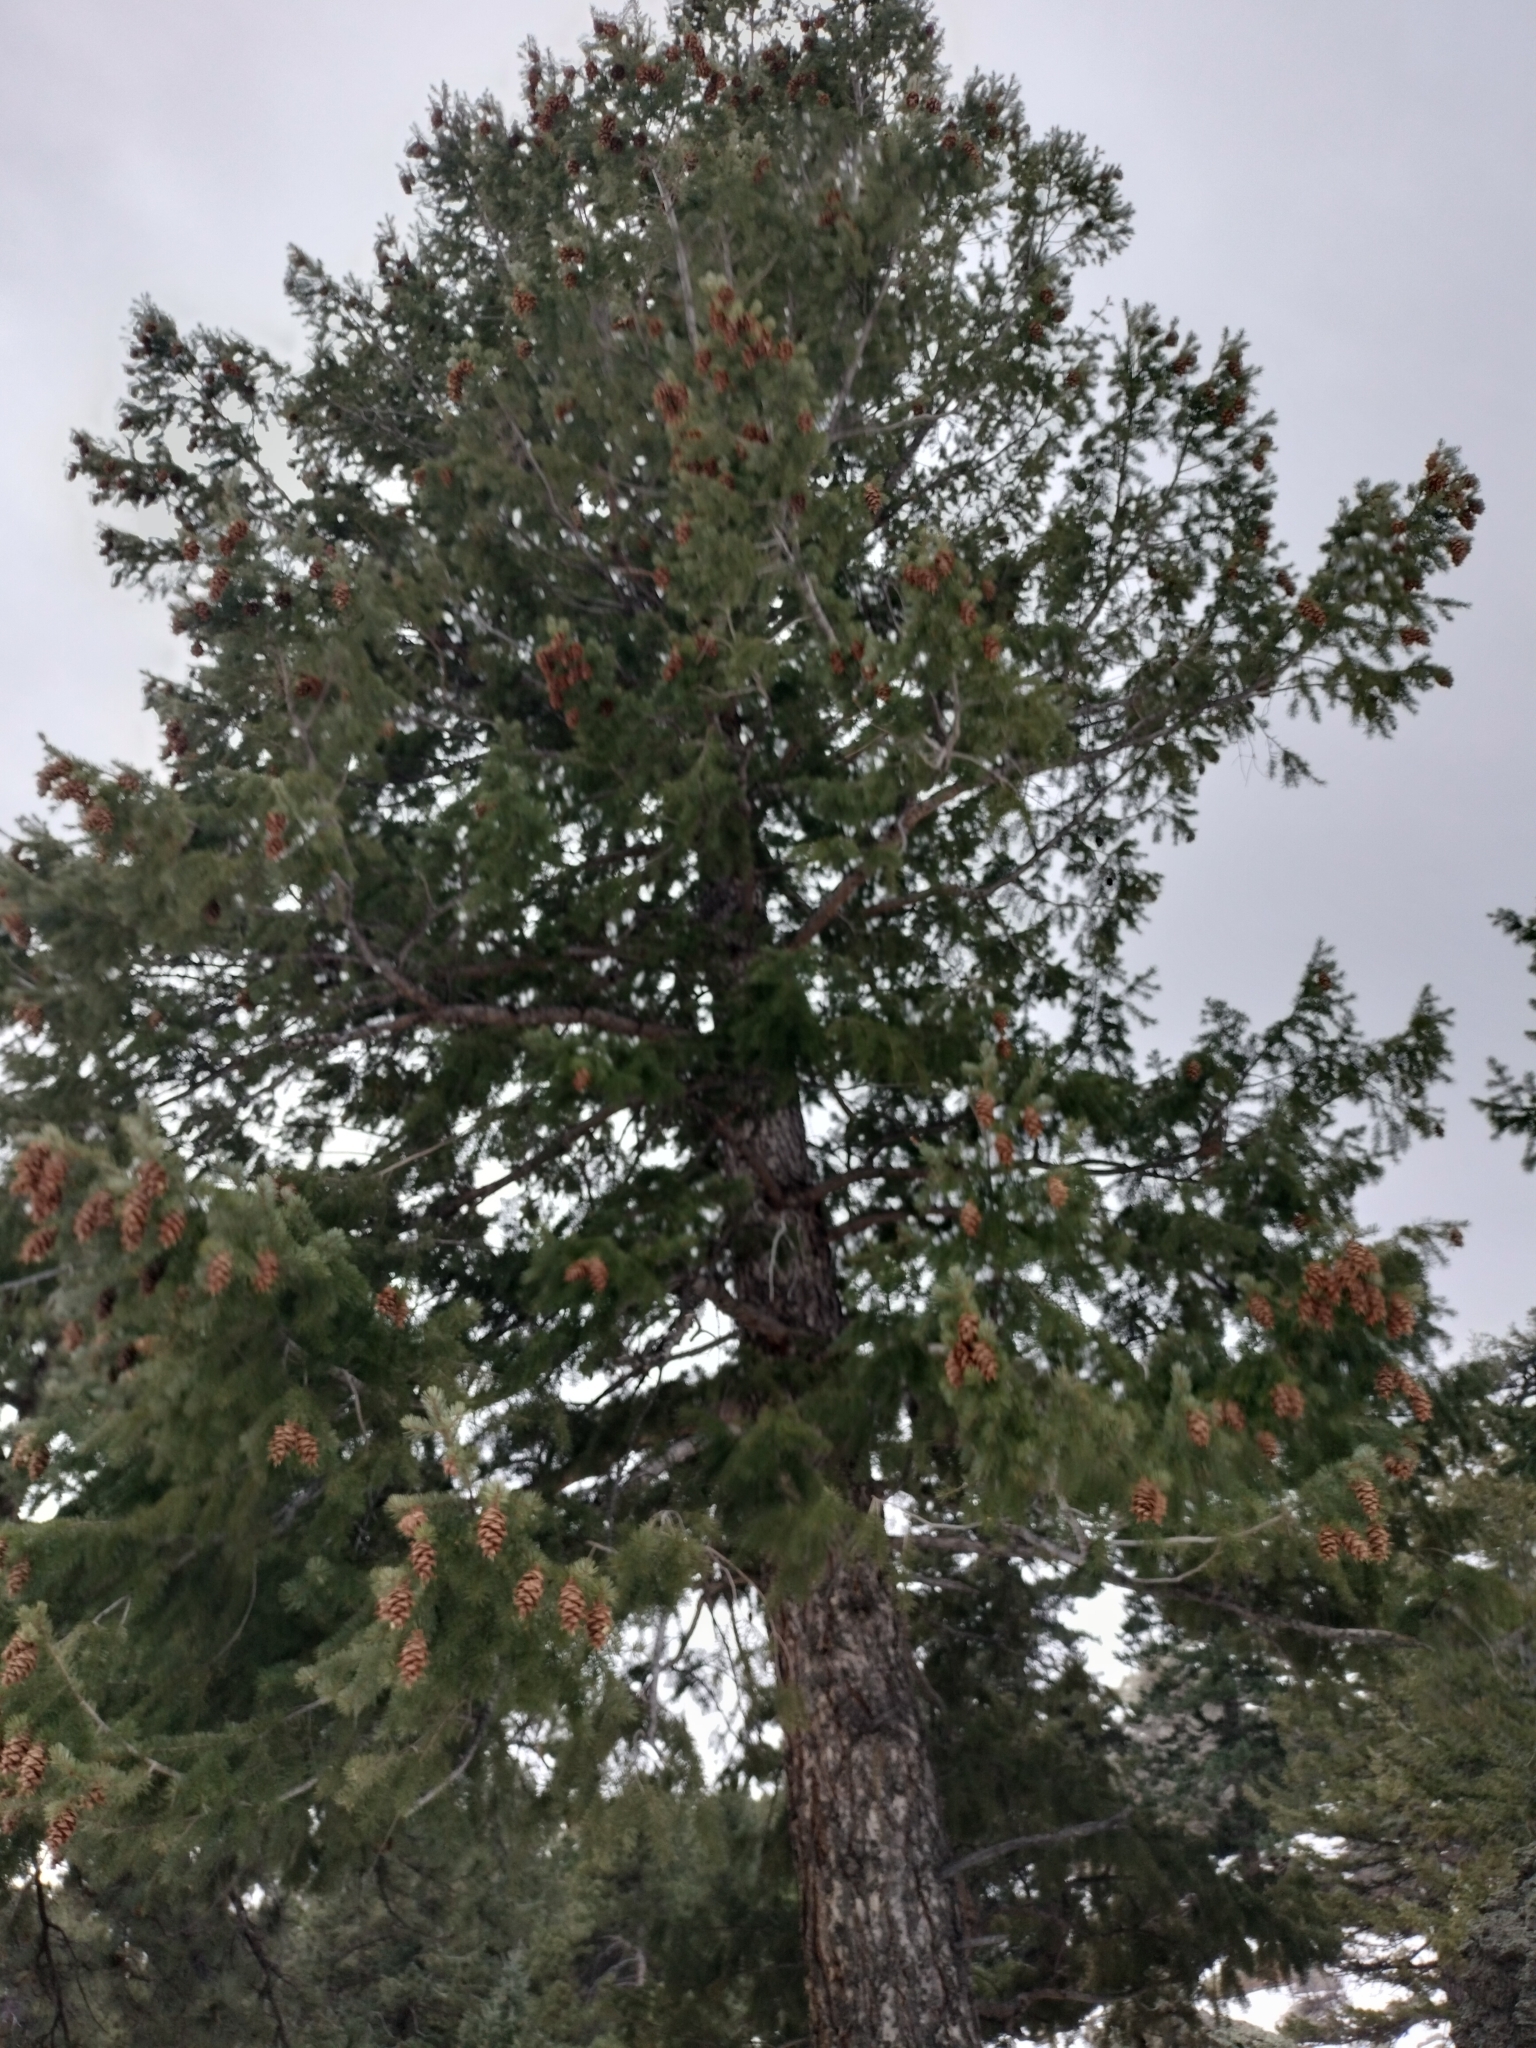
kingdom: Plantae
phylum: Tracheophyta
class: Pinopsida
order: Pinales
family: Pinaceae
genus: Pseudotsuga
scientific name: Pseudotsuga menziesii
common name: Douglas fir
